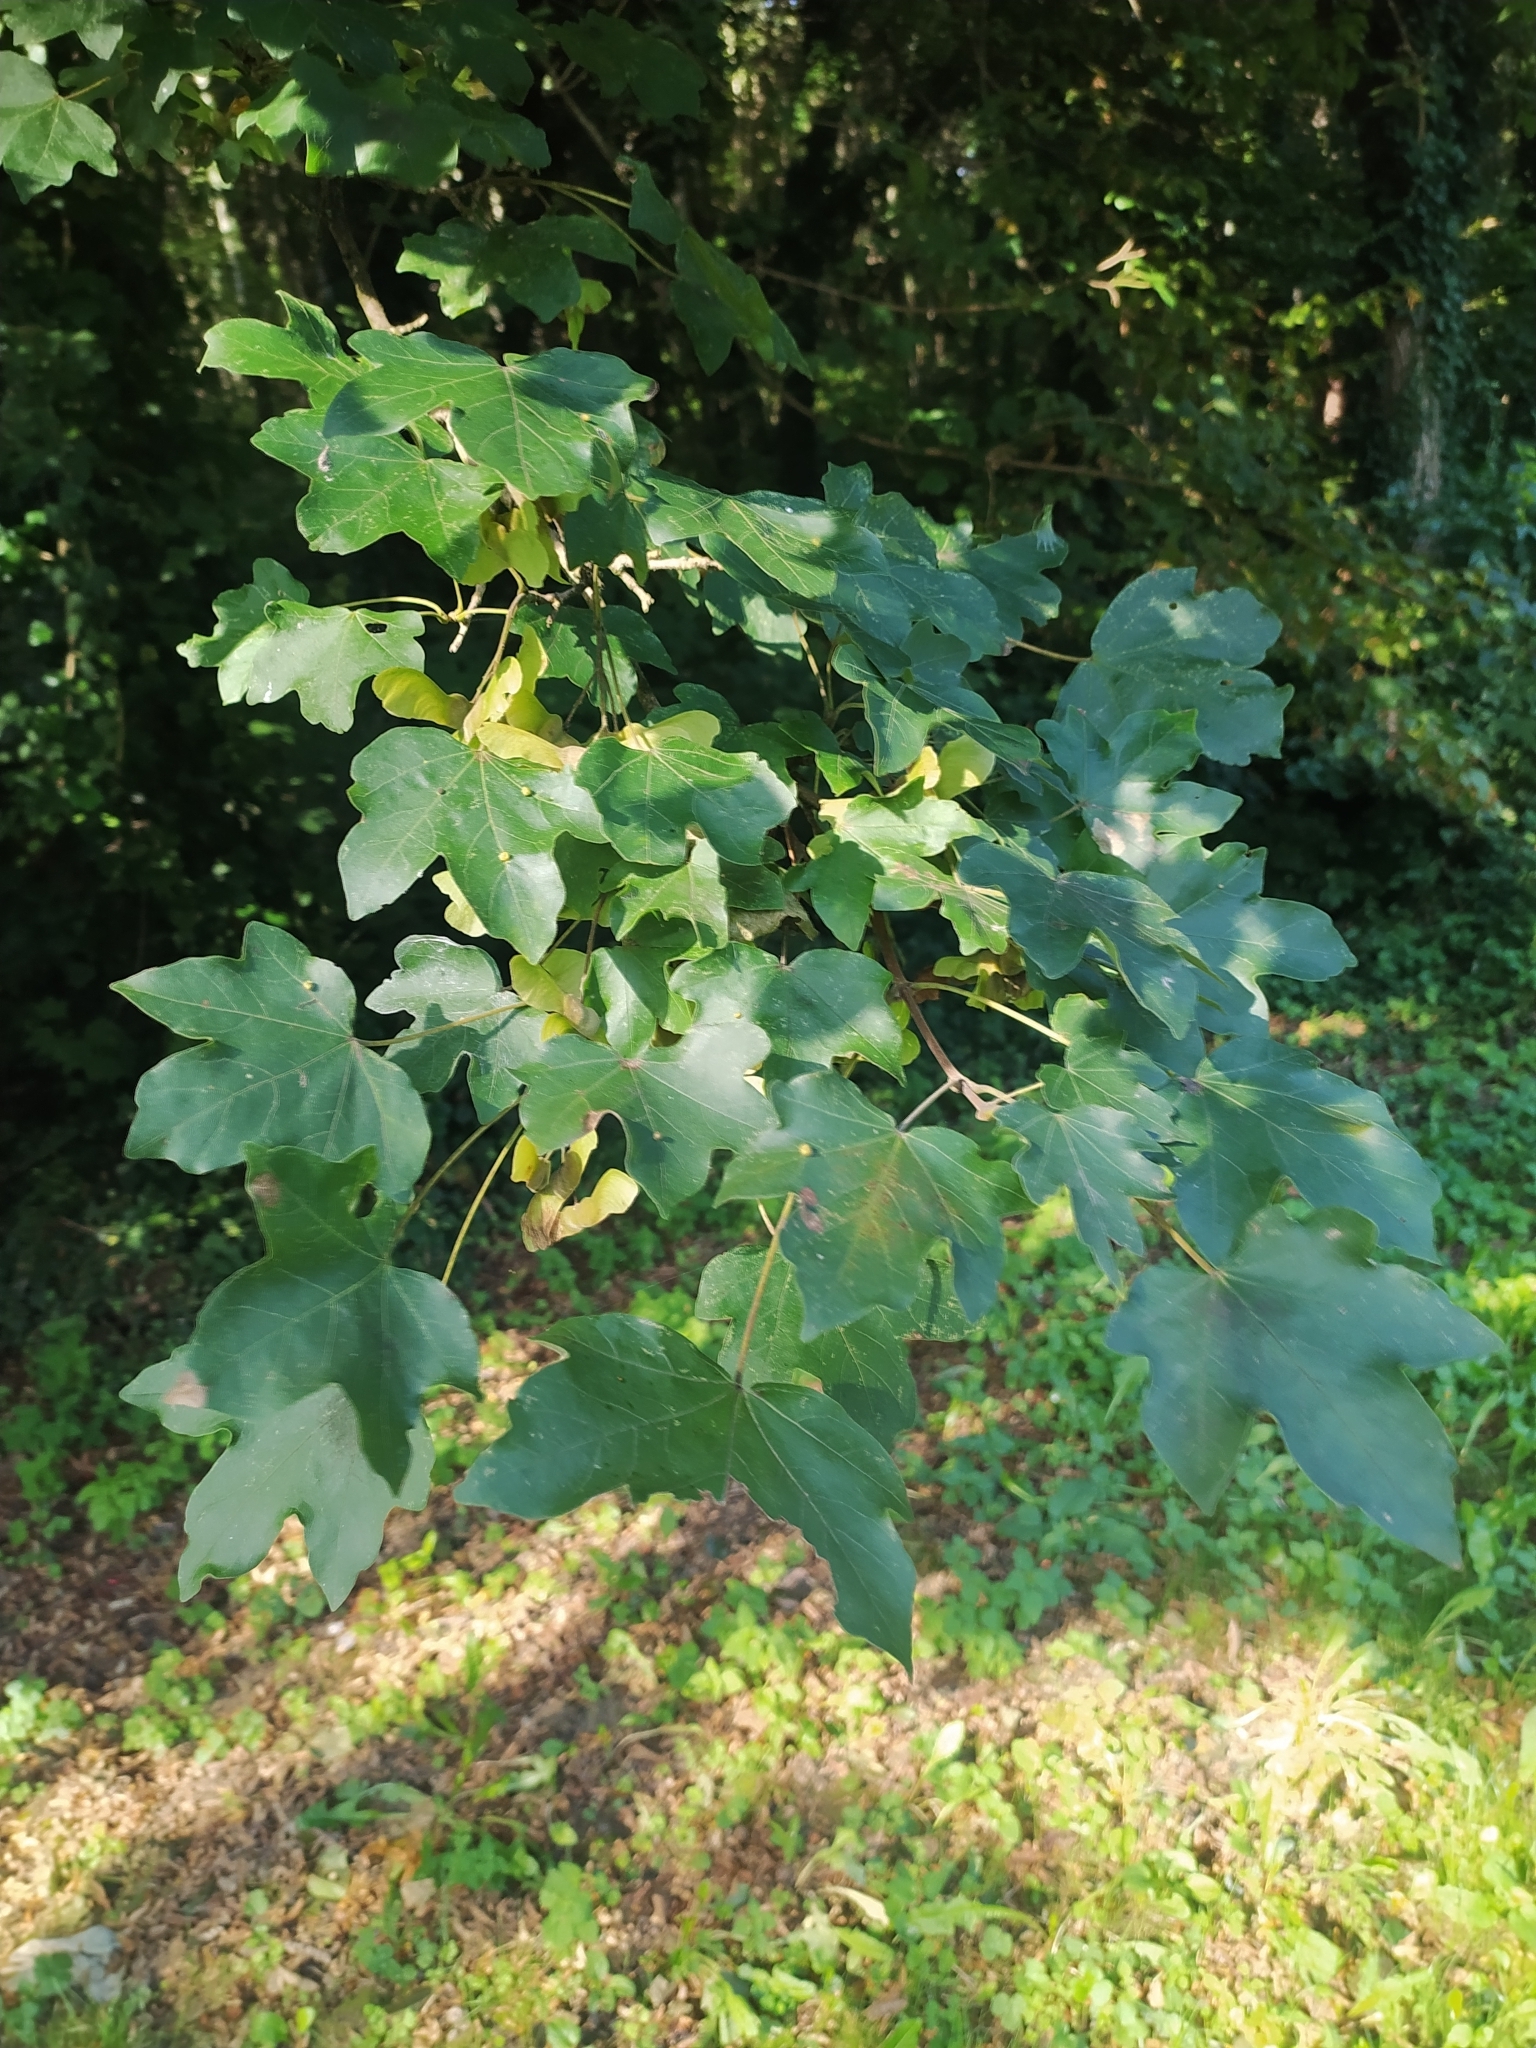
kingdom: Plantae
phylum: Tracheophyta
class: Magnoliopsida
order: Sapindales
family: Sapindaceae
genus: Acer
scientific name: Acer campestre
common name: Field maple
